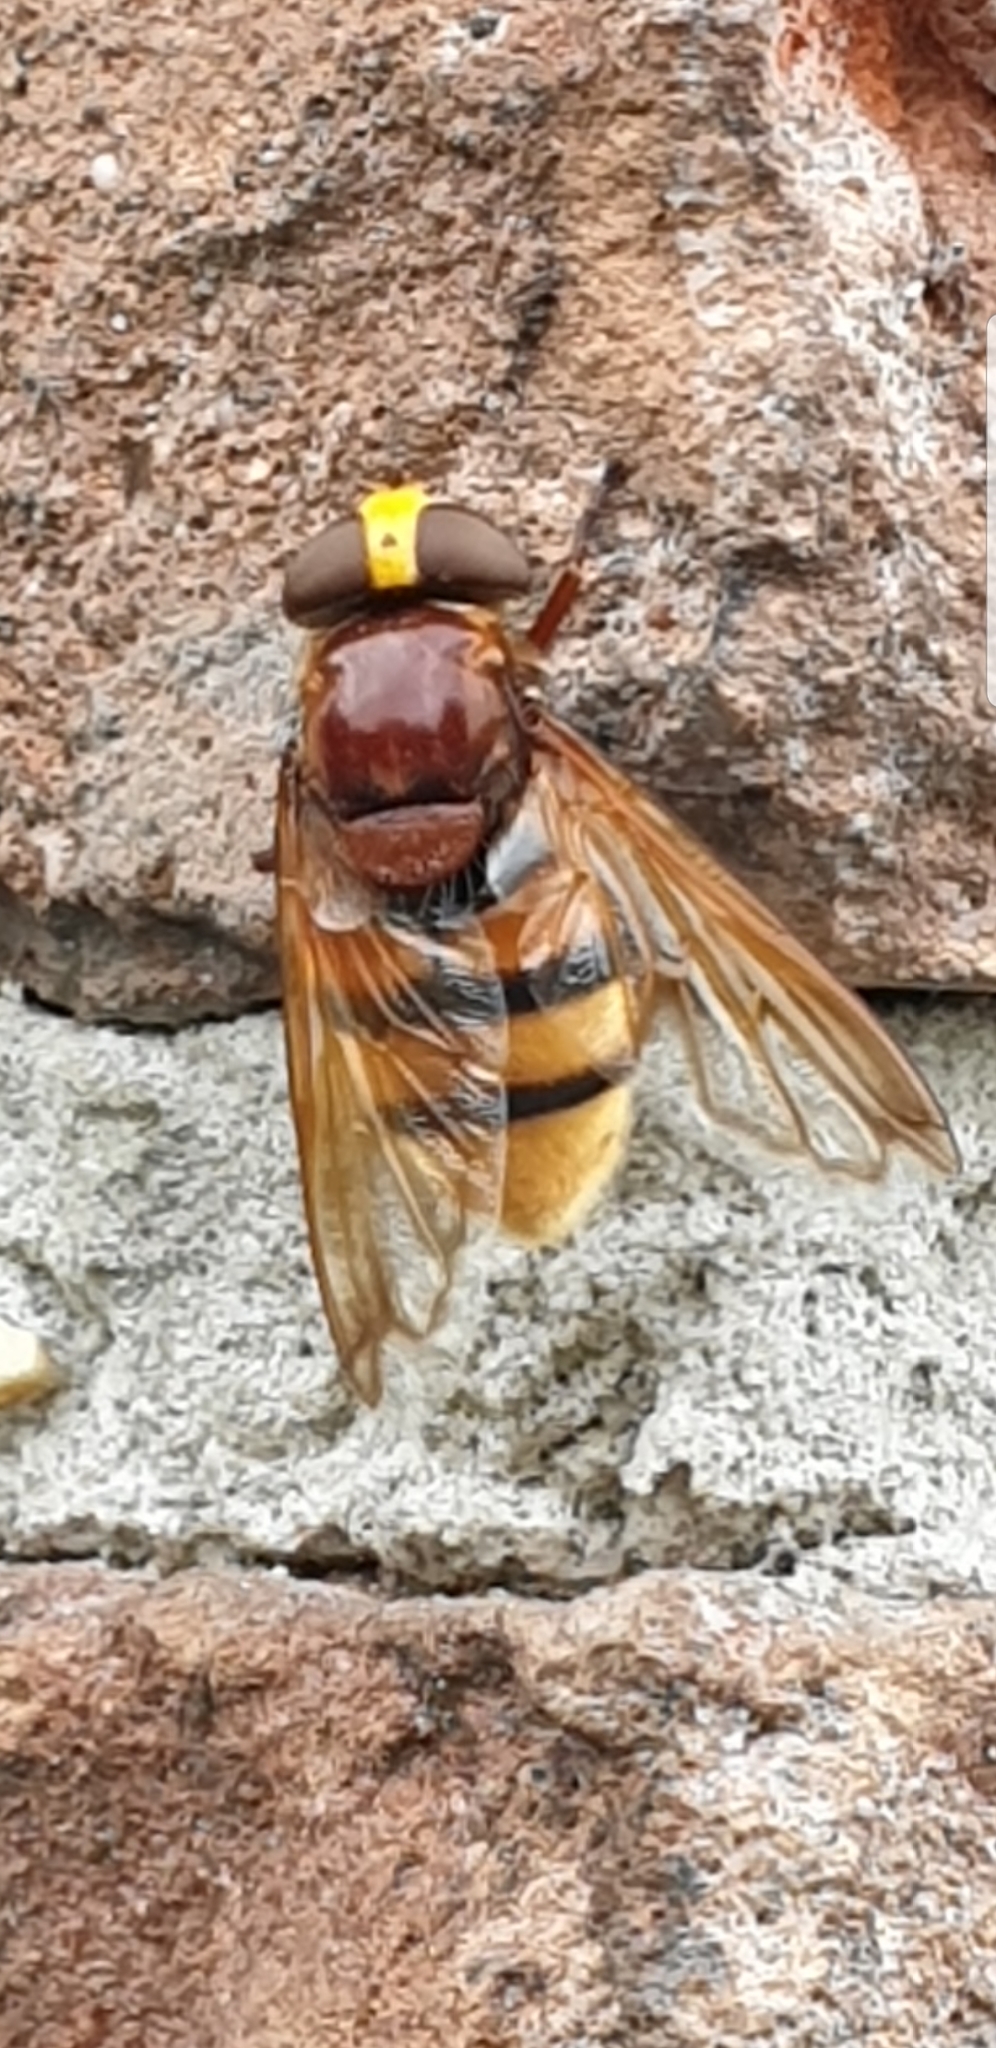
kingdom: Animalia
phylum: Arthropoda
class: Insecta
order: Diptera
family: Syrphidae
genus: Volucella
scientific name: Volucella zonaria
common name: Hornet hoverfly
